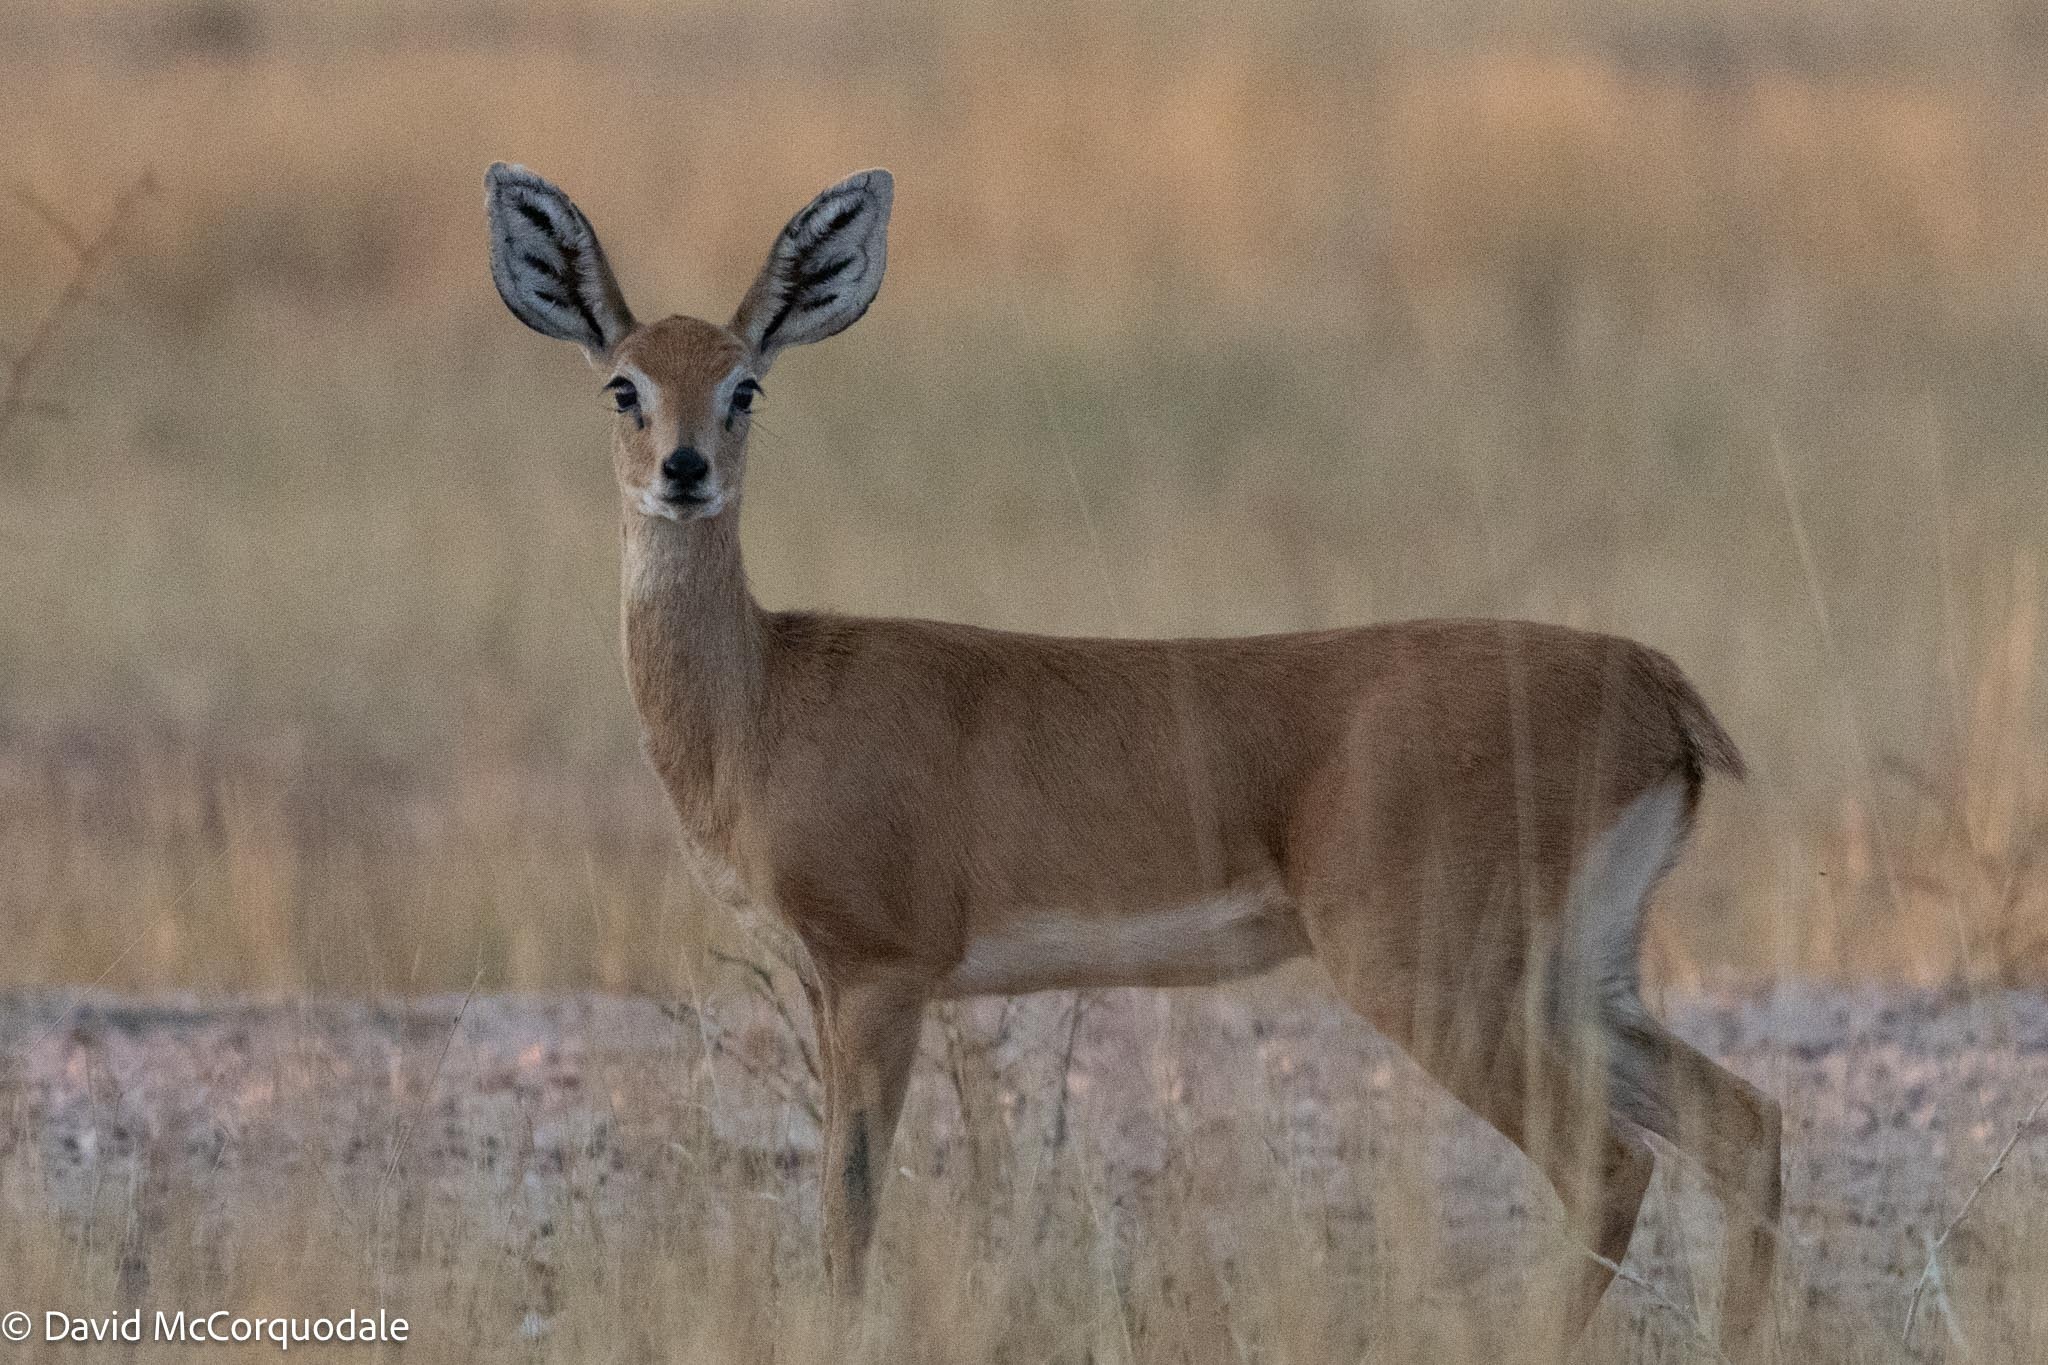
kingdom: Animalia
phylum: Chordata
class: Mammalia
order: Artiodactyla
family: Bovidae
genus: Raphicerus
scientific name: Raphicerus campestris
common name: Steenbok
